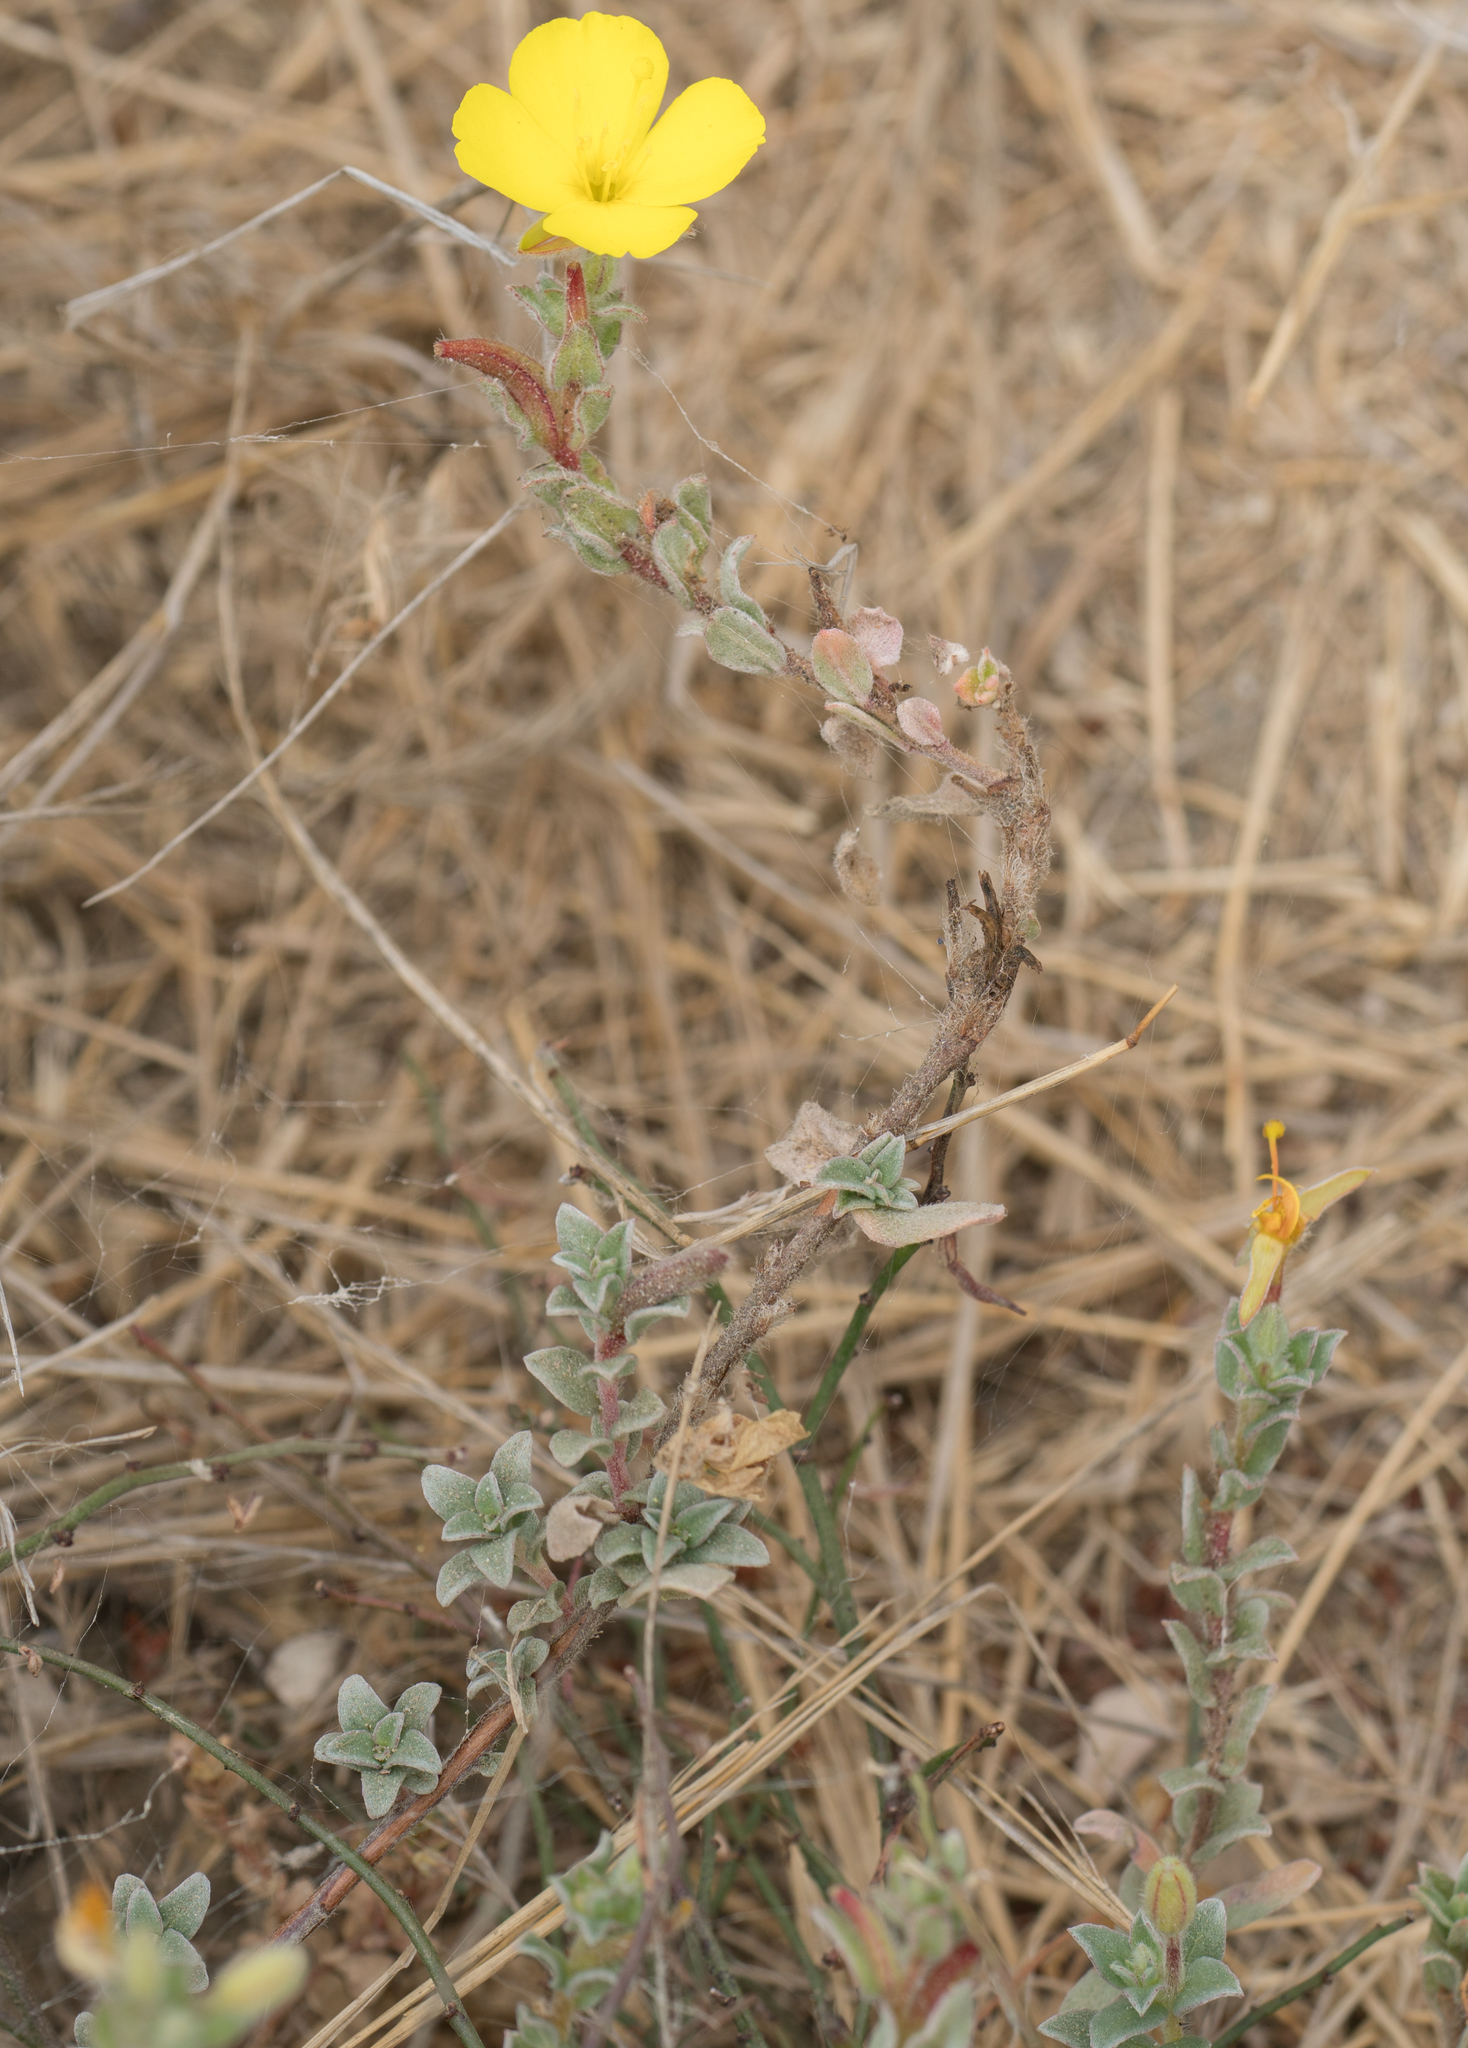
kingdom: Plantae
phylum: Tracheophyta
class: Magnoliopsida
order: Myrtales
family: Onagraceae
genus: Camissoniopsis
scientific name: Camissoniopsis cheiranthifolia
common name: Beach suncup
